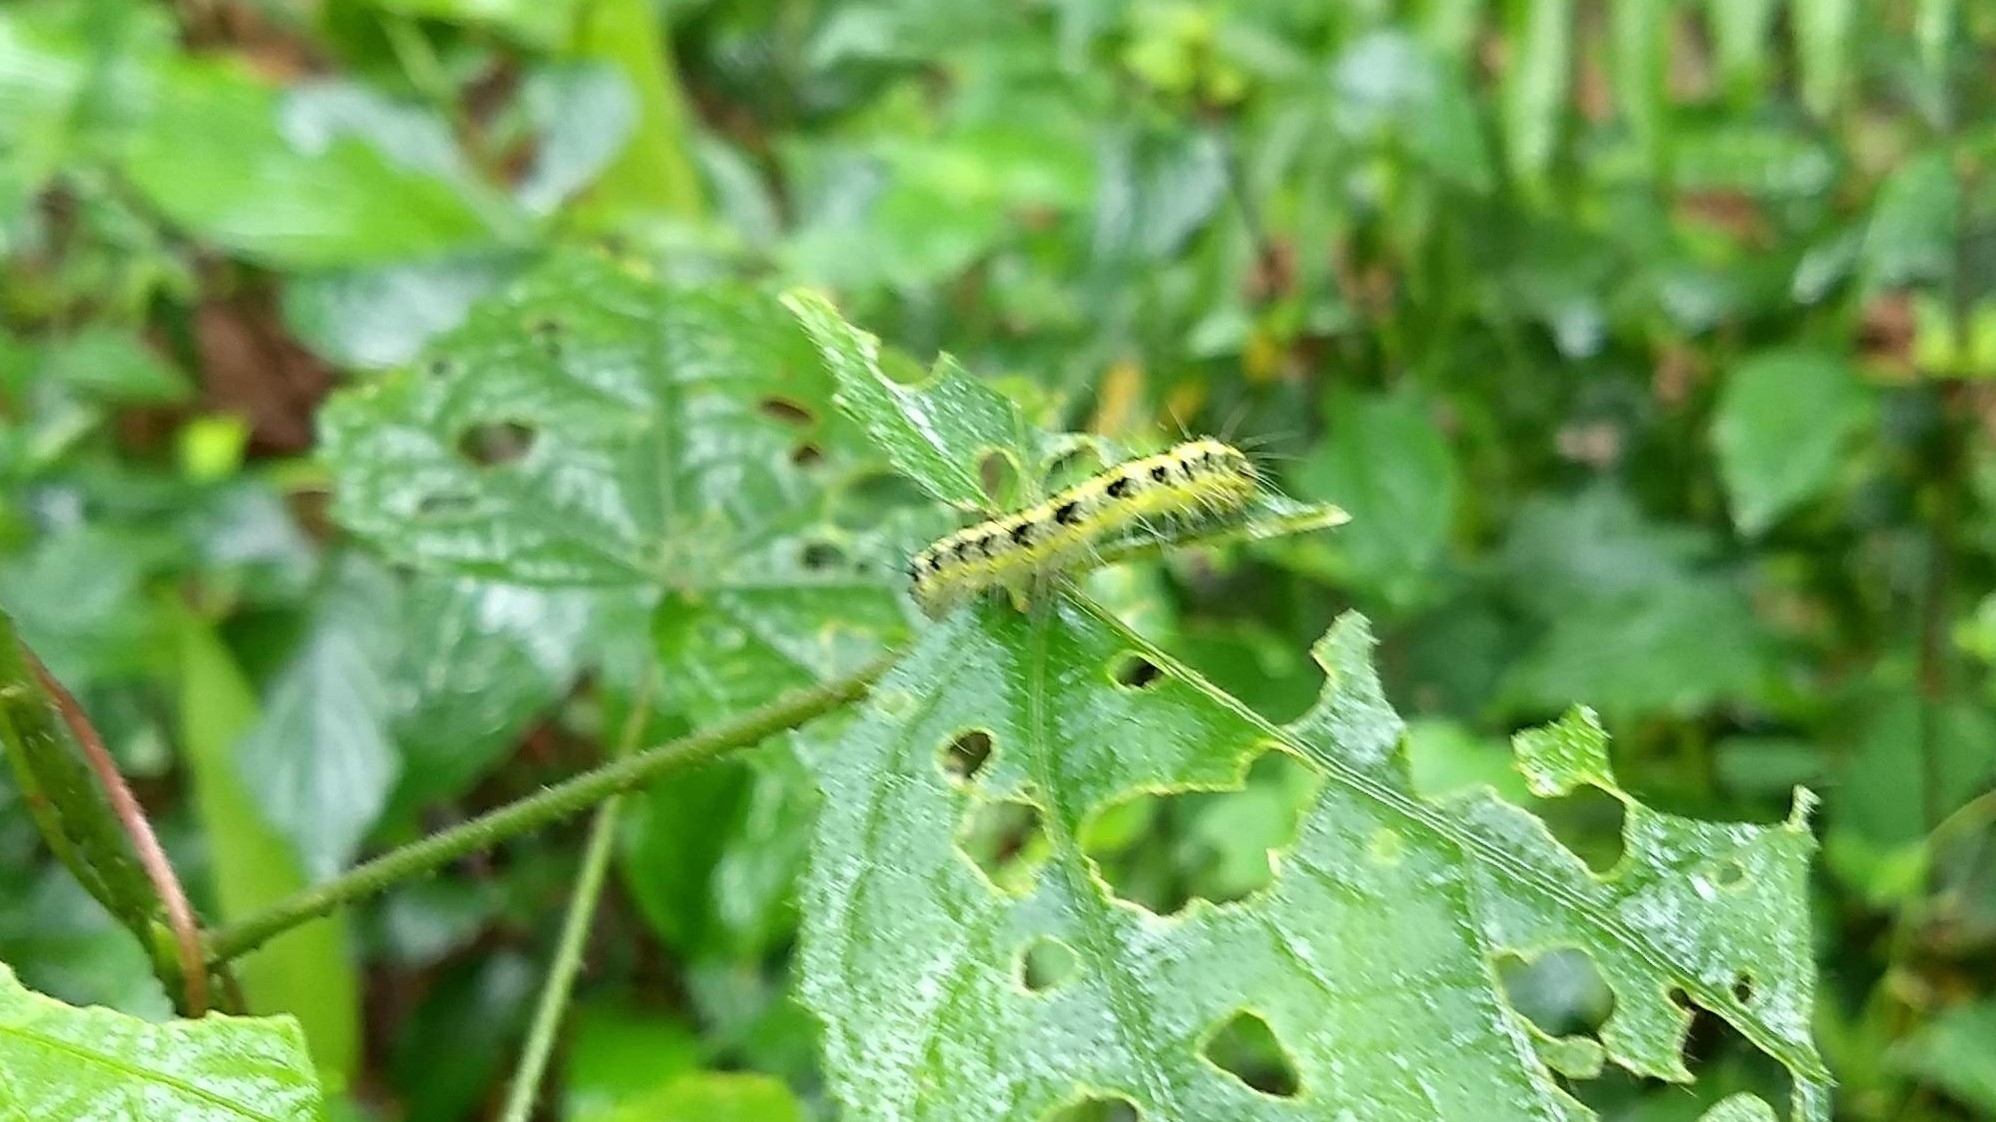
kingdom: Animalia
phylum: Arthropoda
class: Insecta
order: Lepidoptera
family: Nolidae
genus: Xanthodes
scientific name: Xanthodes transversa
